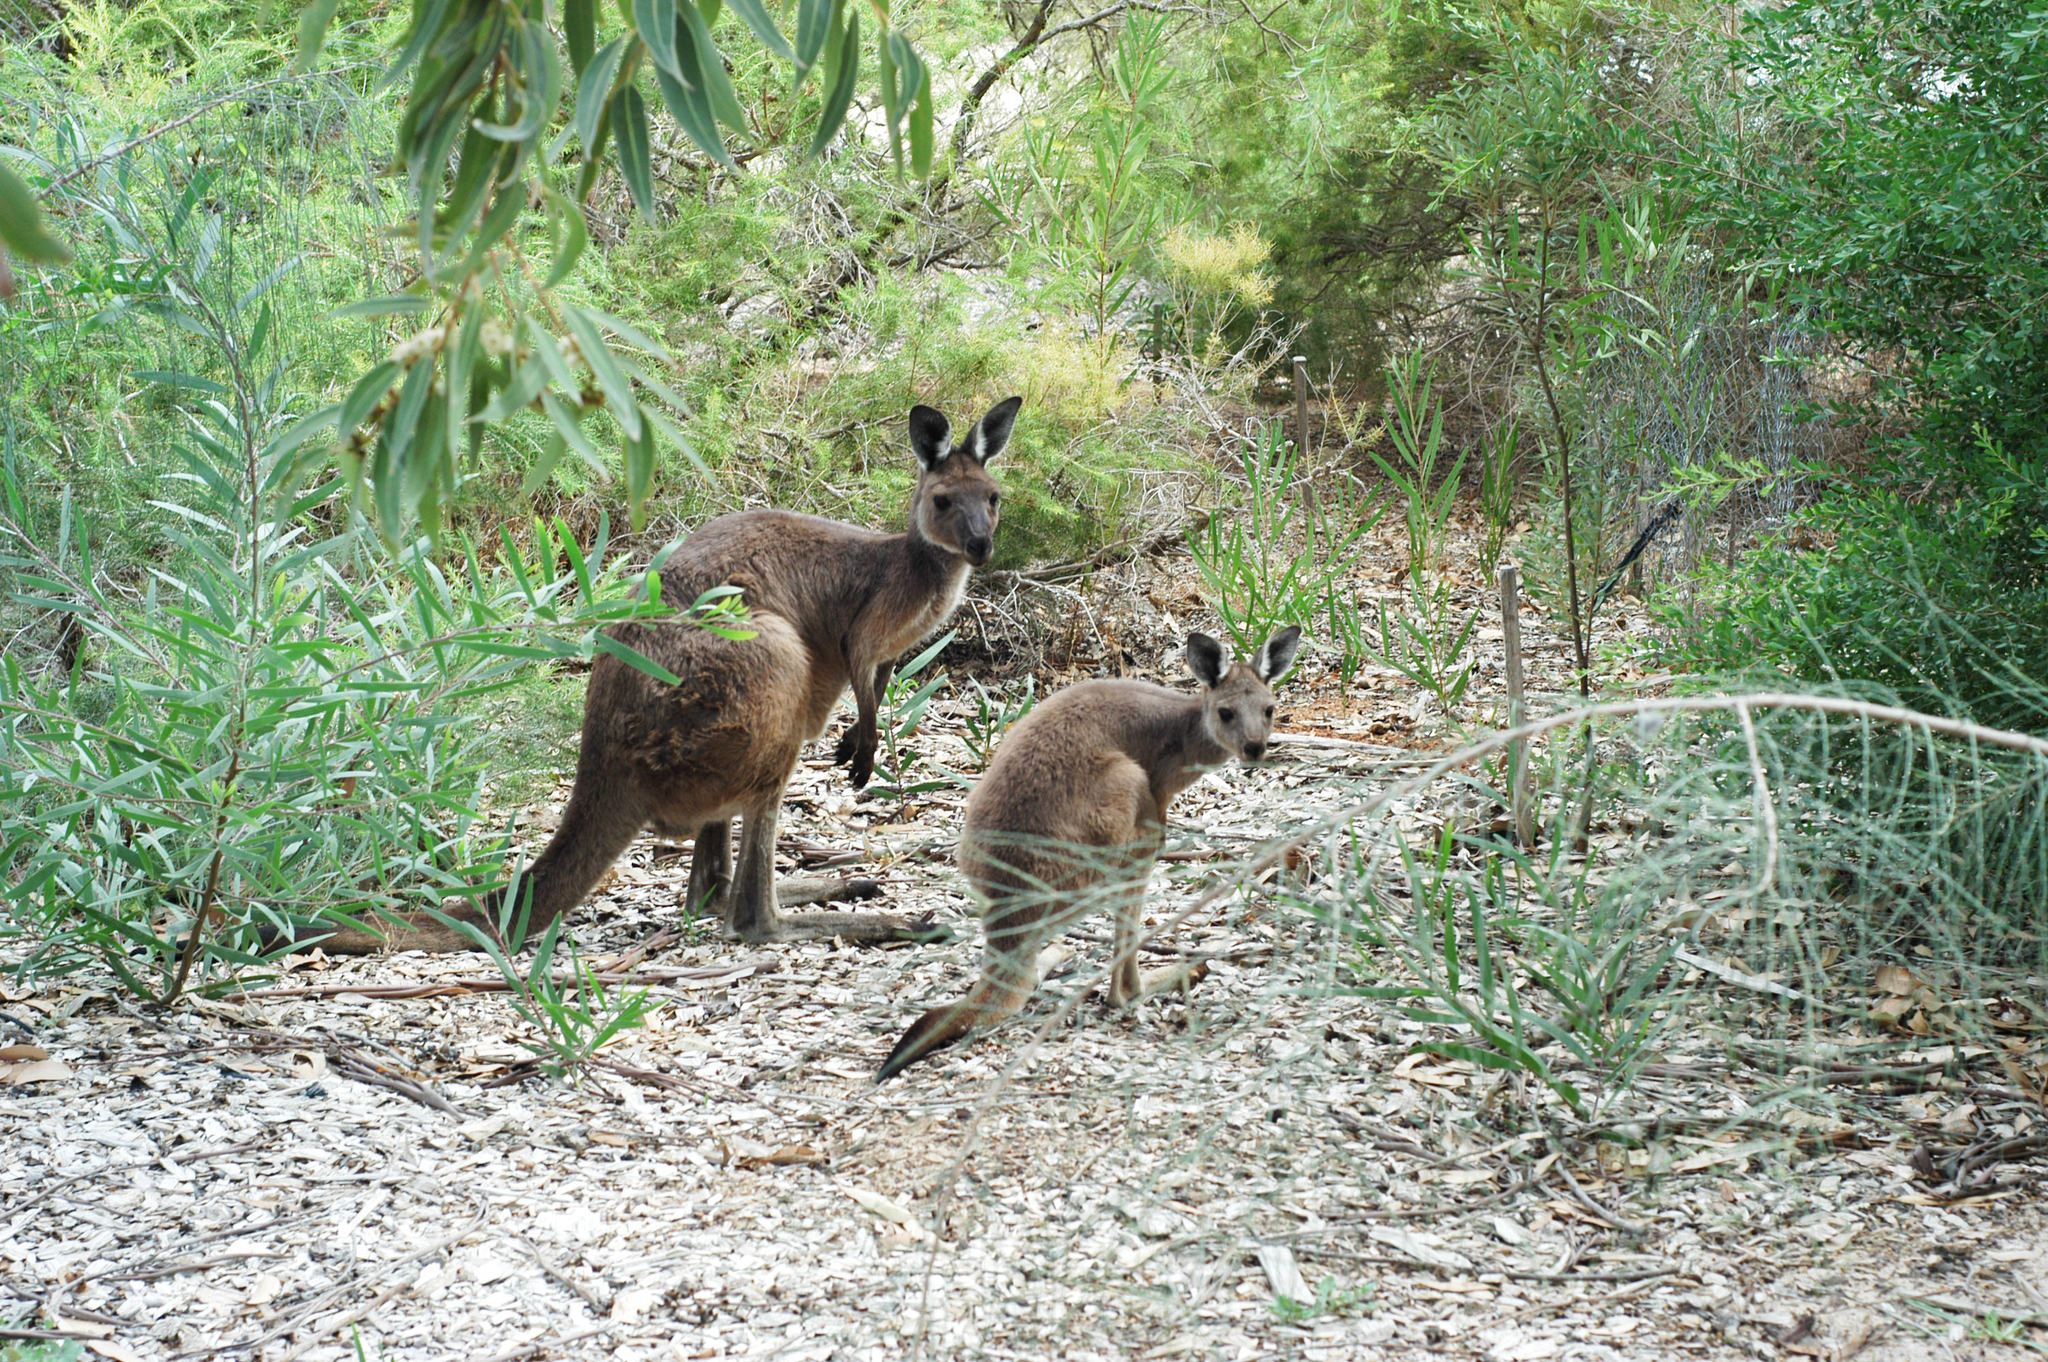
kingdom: Animalia
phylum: Chordata
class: Mammalia
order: Diprotodontia
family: Macropodidae
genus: Macropus
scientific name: Macropus fuliginosus
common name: Western grey kangaroo
